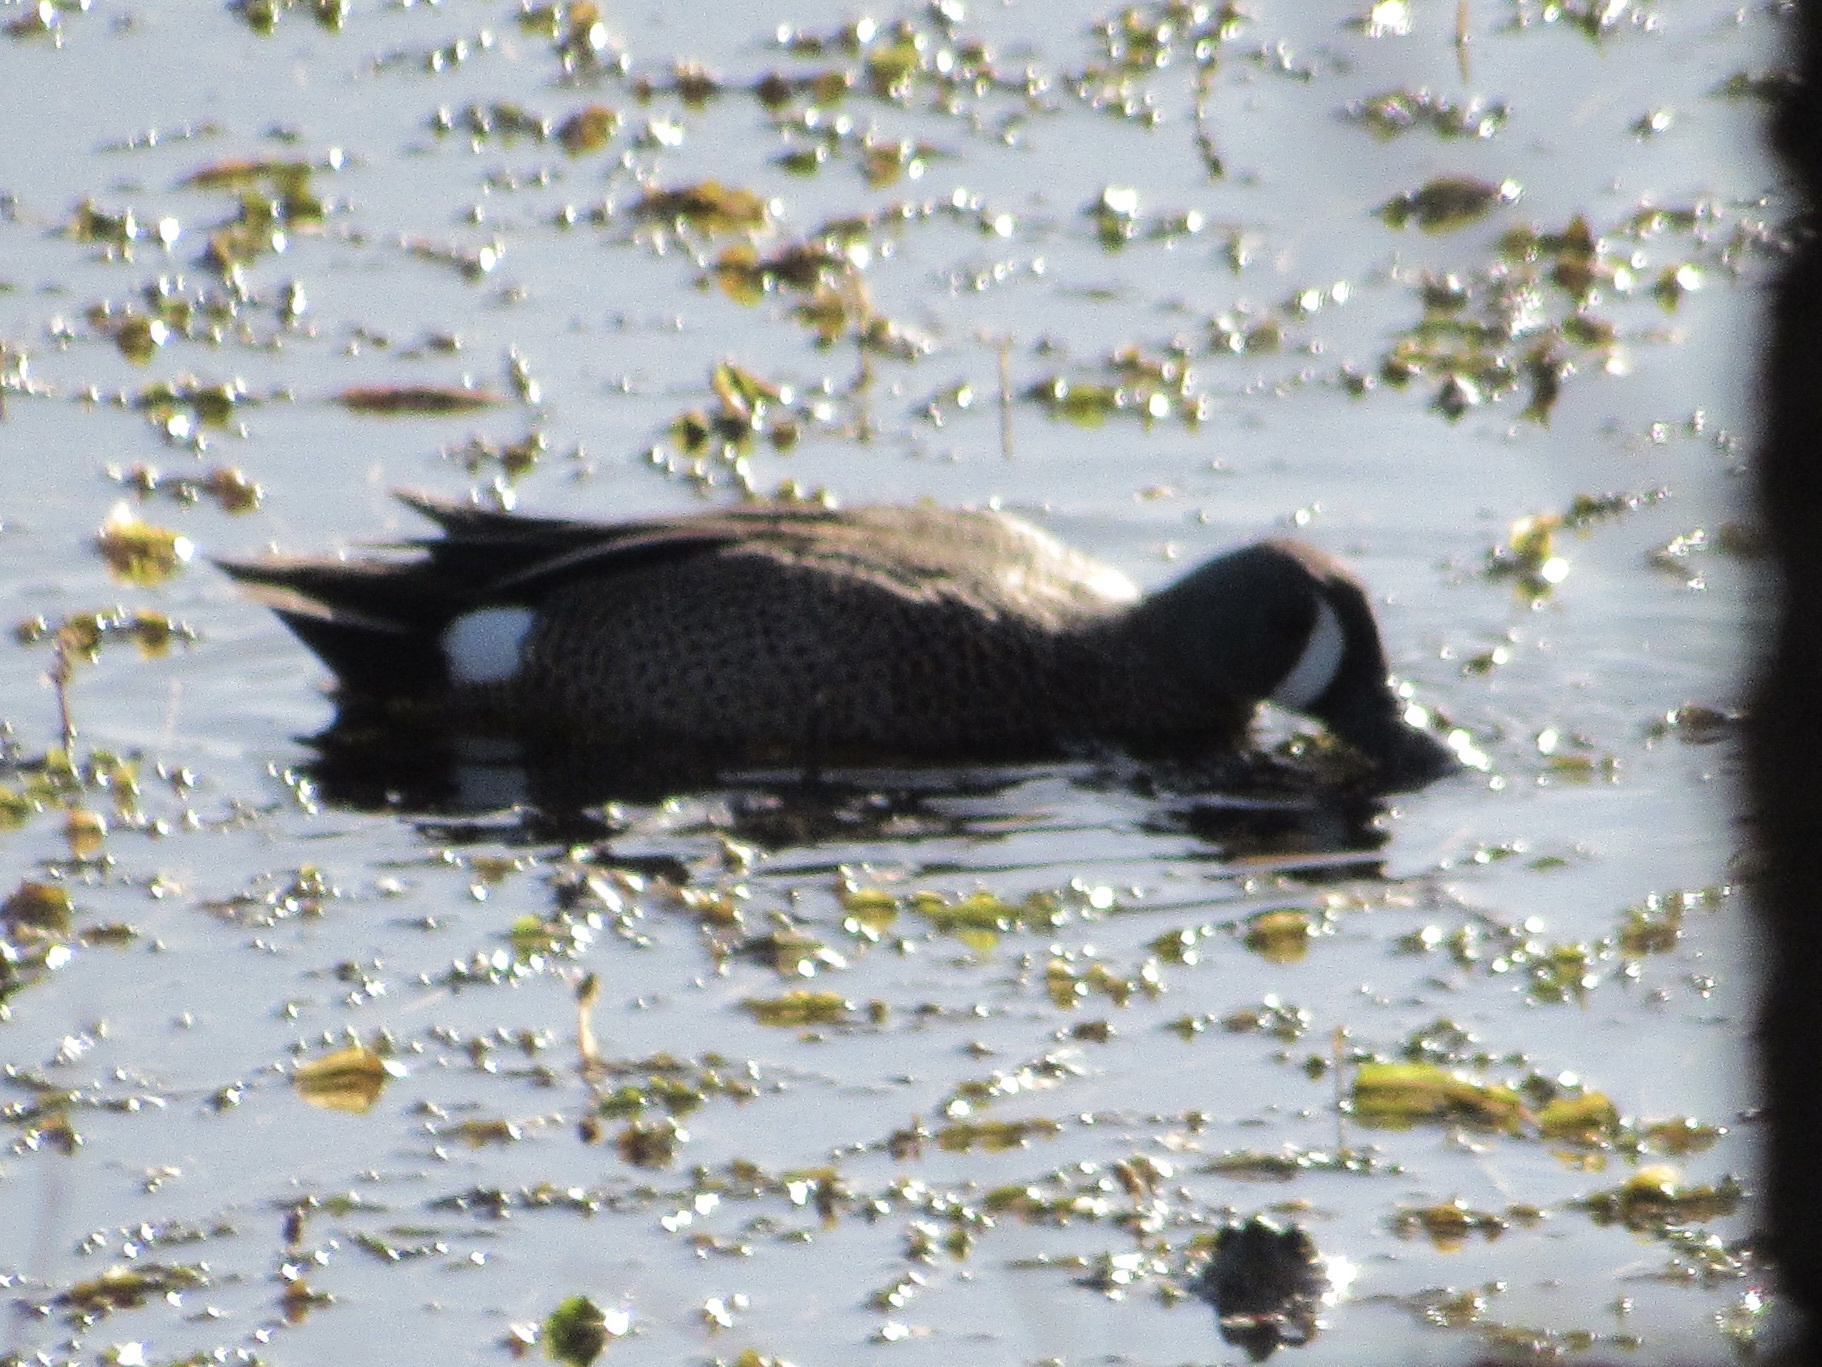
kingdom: Animalia
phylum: Chordata
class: Aves
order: Anseriformes
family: Anatidae
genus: Spatula
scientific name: Spatula discors
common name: Blue-winged teal
